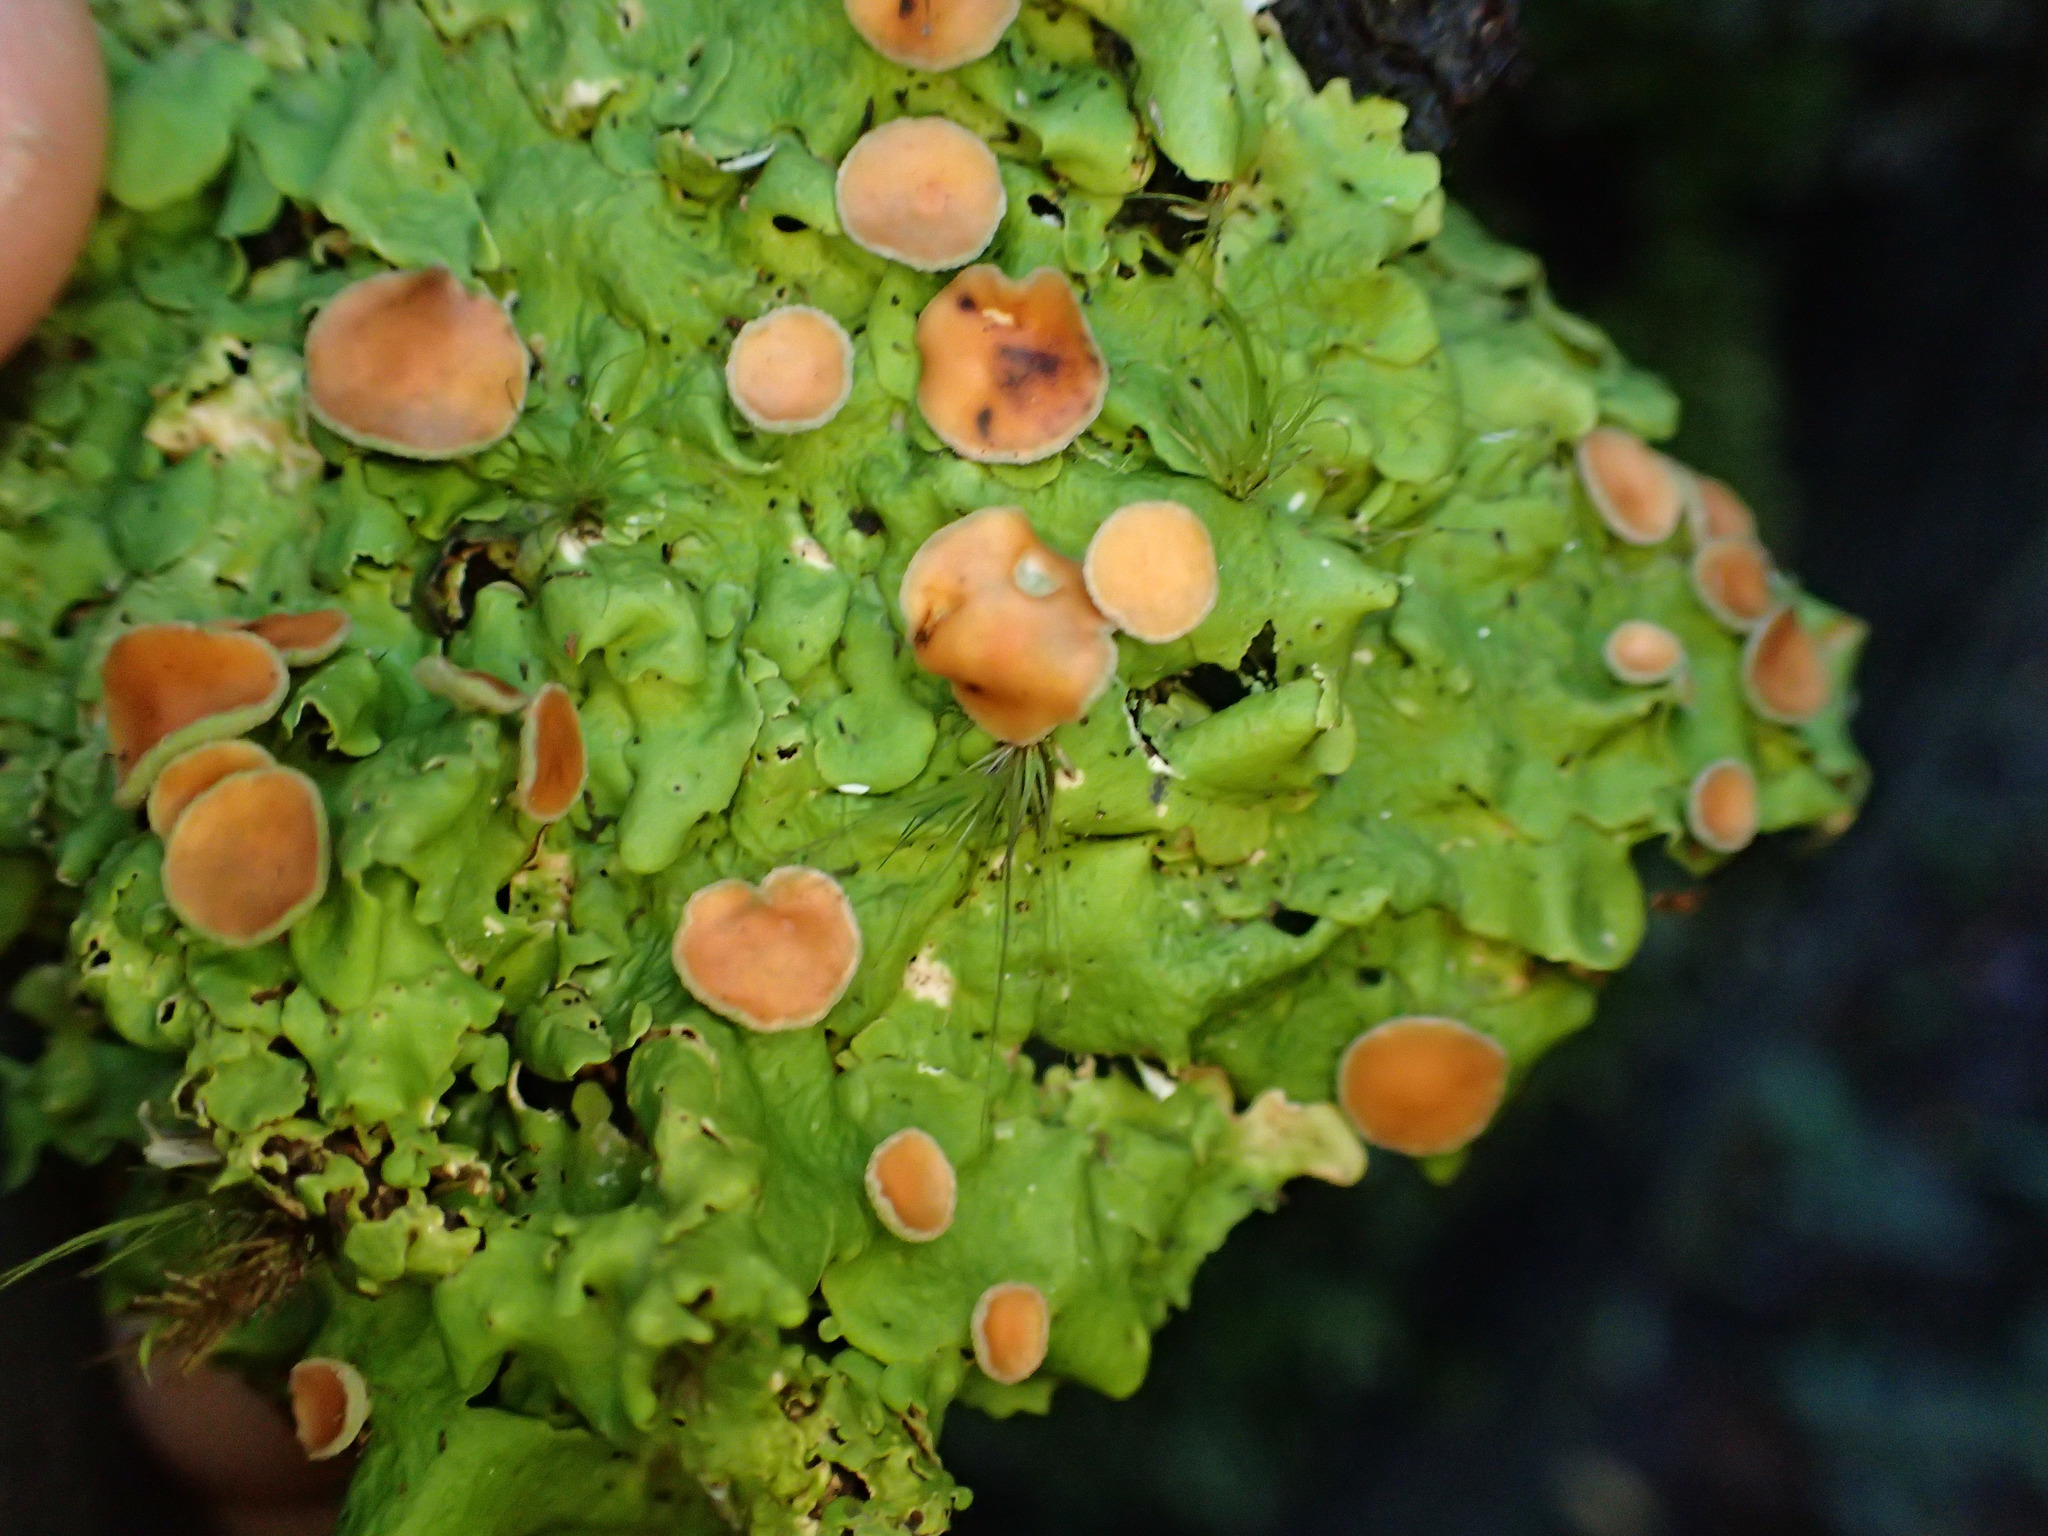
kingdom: Fungi
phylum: Ascomycota
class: Lecanoromycetes
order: Peltigerales
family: Lobariaceae
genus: Sticta
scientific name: Sticta subcaperata
